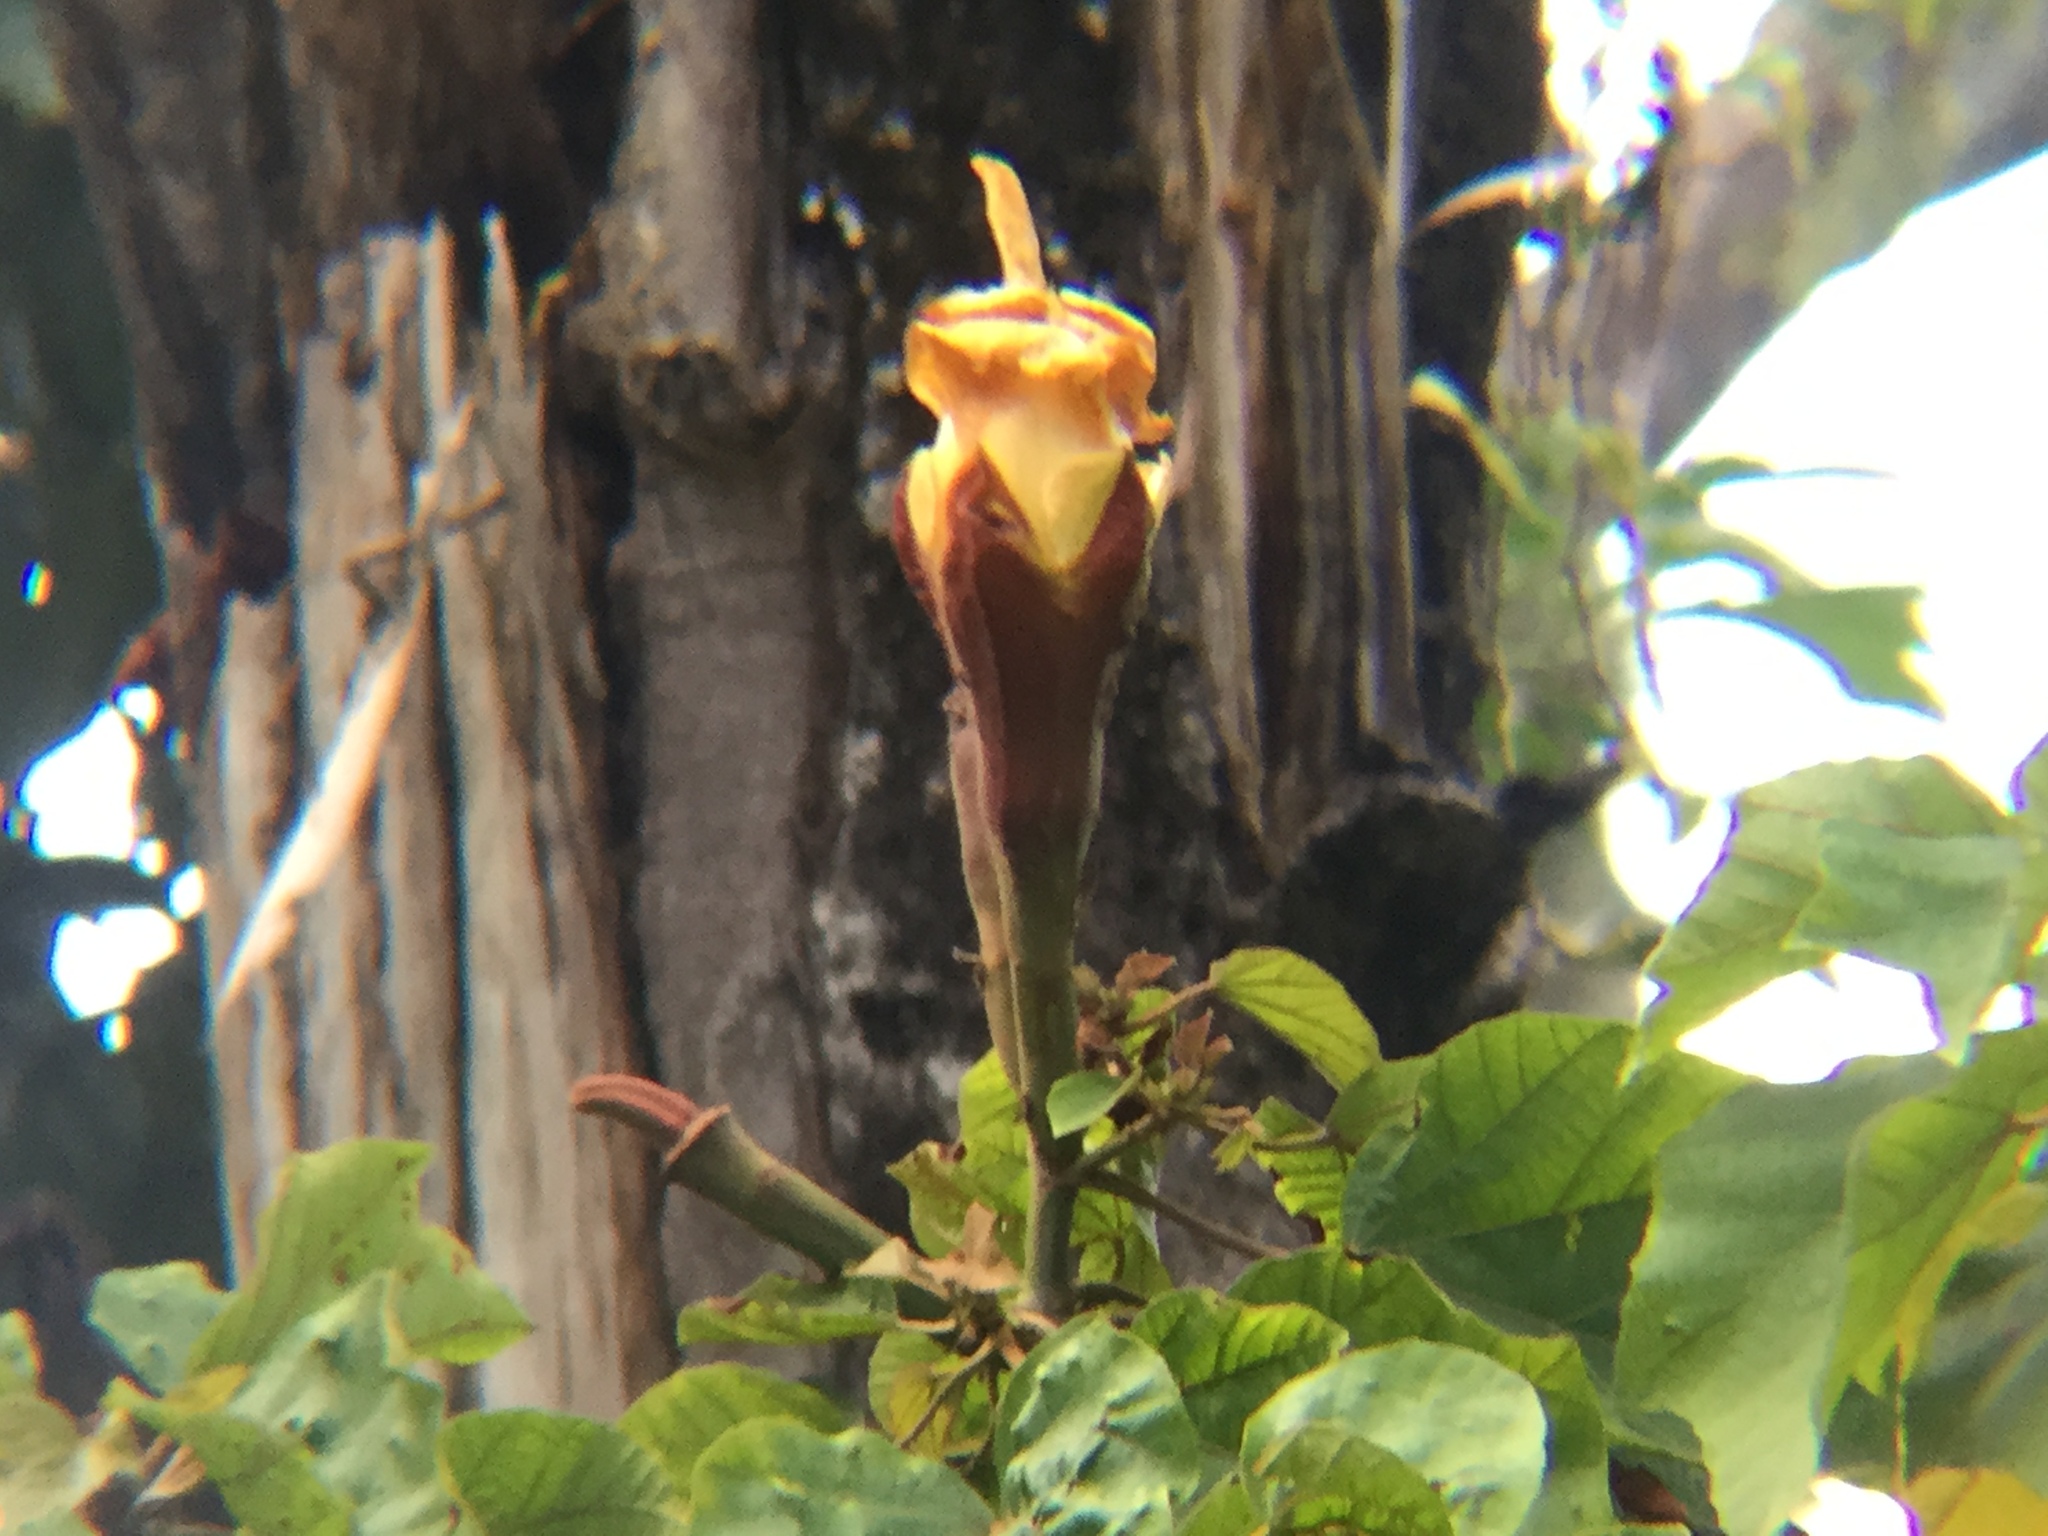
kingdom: Plantae
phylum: Tracheophyta
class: Magnoliopsida
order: Malvales
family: Malvaceae
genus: Ochroma
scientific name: Ochroma pyramidale
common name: Balsa
